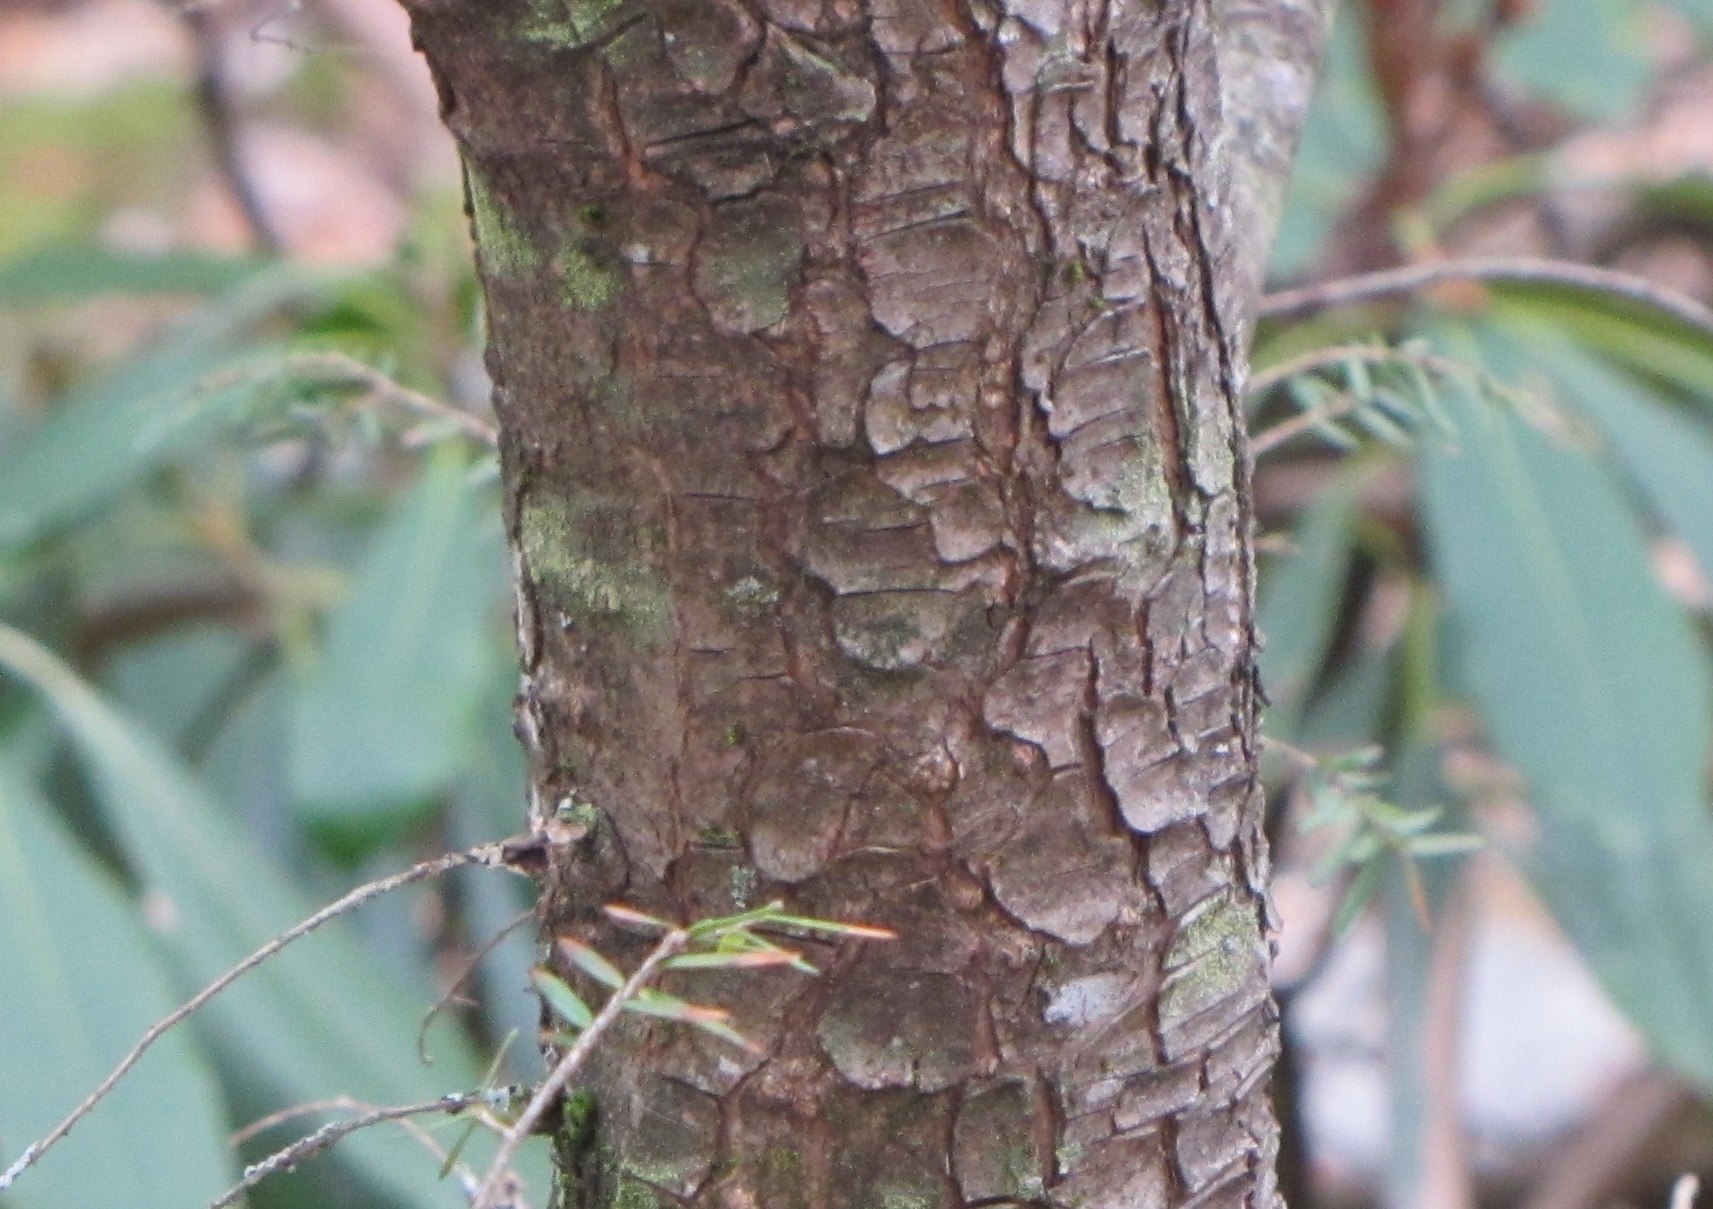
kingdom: Plantae
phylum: Tracheophyta
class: Pinopsida
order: Pinales
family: Pinaceae
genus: Tsuga
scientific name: Tsuga canadensis
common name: Eastern hemlock
